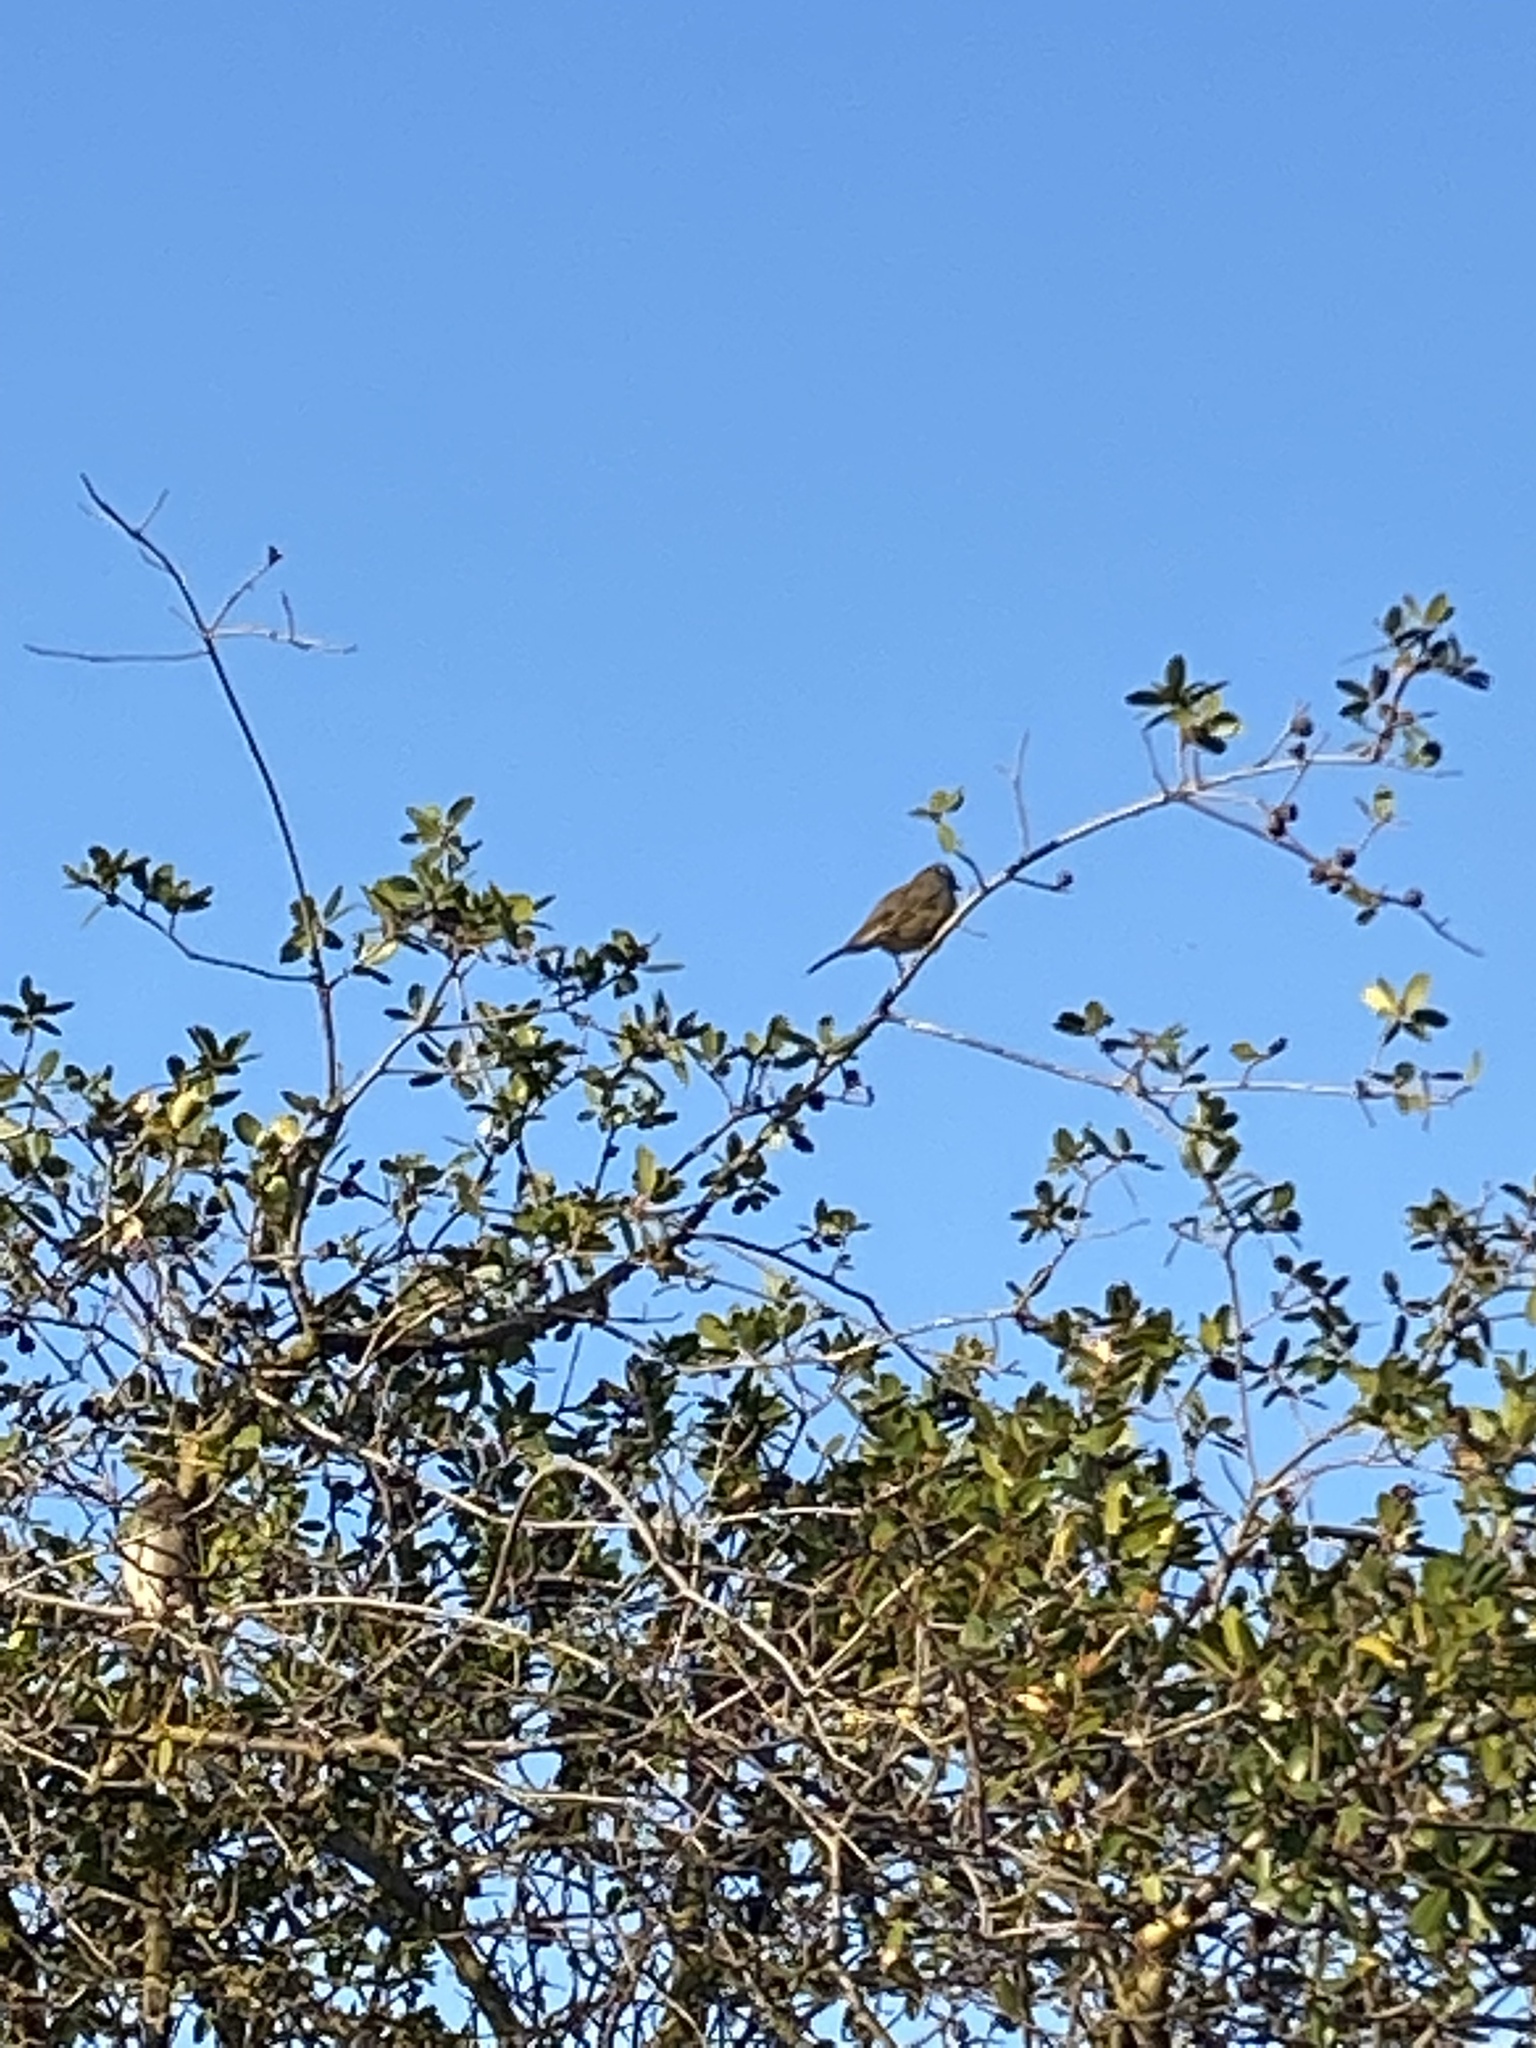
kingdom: Animalia
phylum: Chordata
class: Aves
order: Passeriformes
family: Passerellidae
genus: Zonotrichia
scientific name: Zonotrichia leucophrys
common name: White-crowned sparrow
